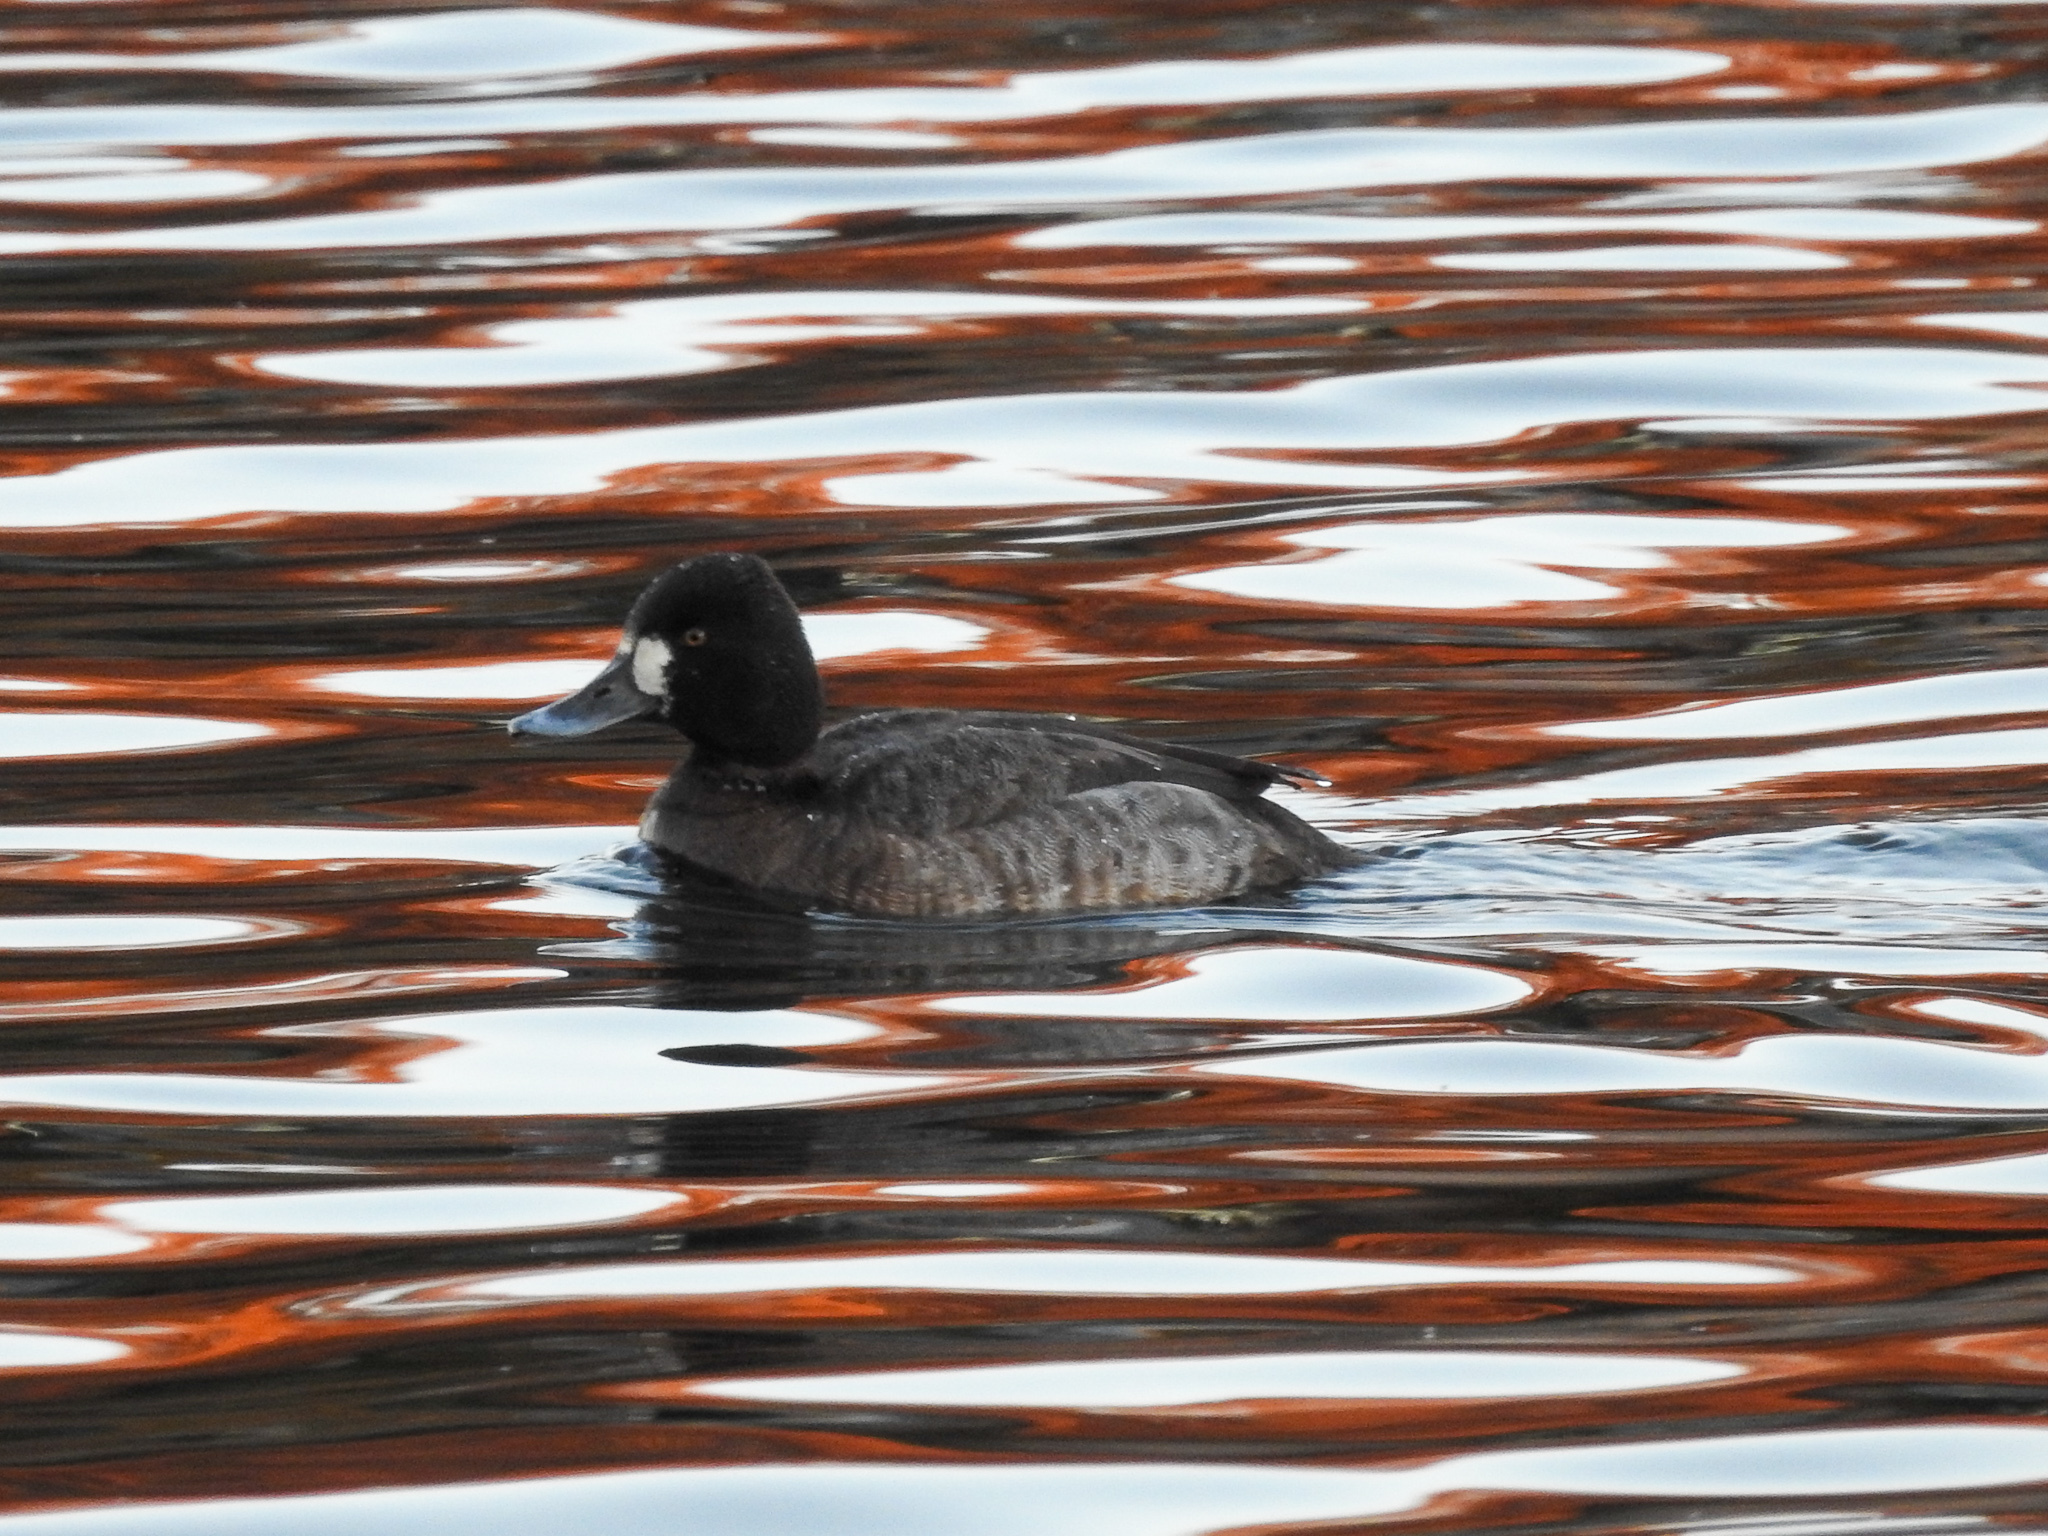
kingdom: Animalia
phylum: Chordata
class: Aves
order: Anseriformes
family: Anatidae
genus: Aythya
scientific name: Aythya affinis
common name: Lesser scaup
